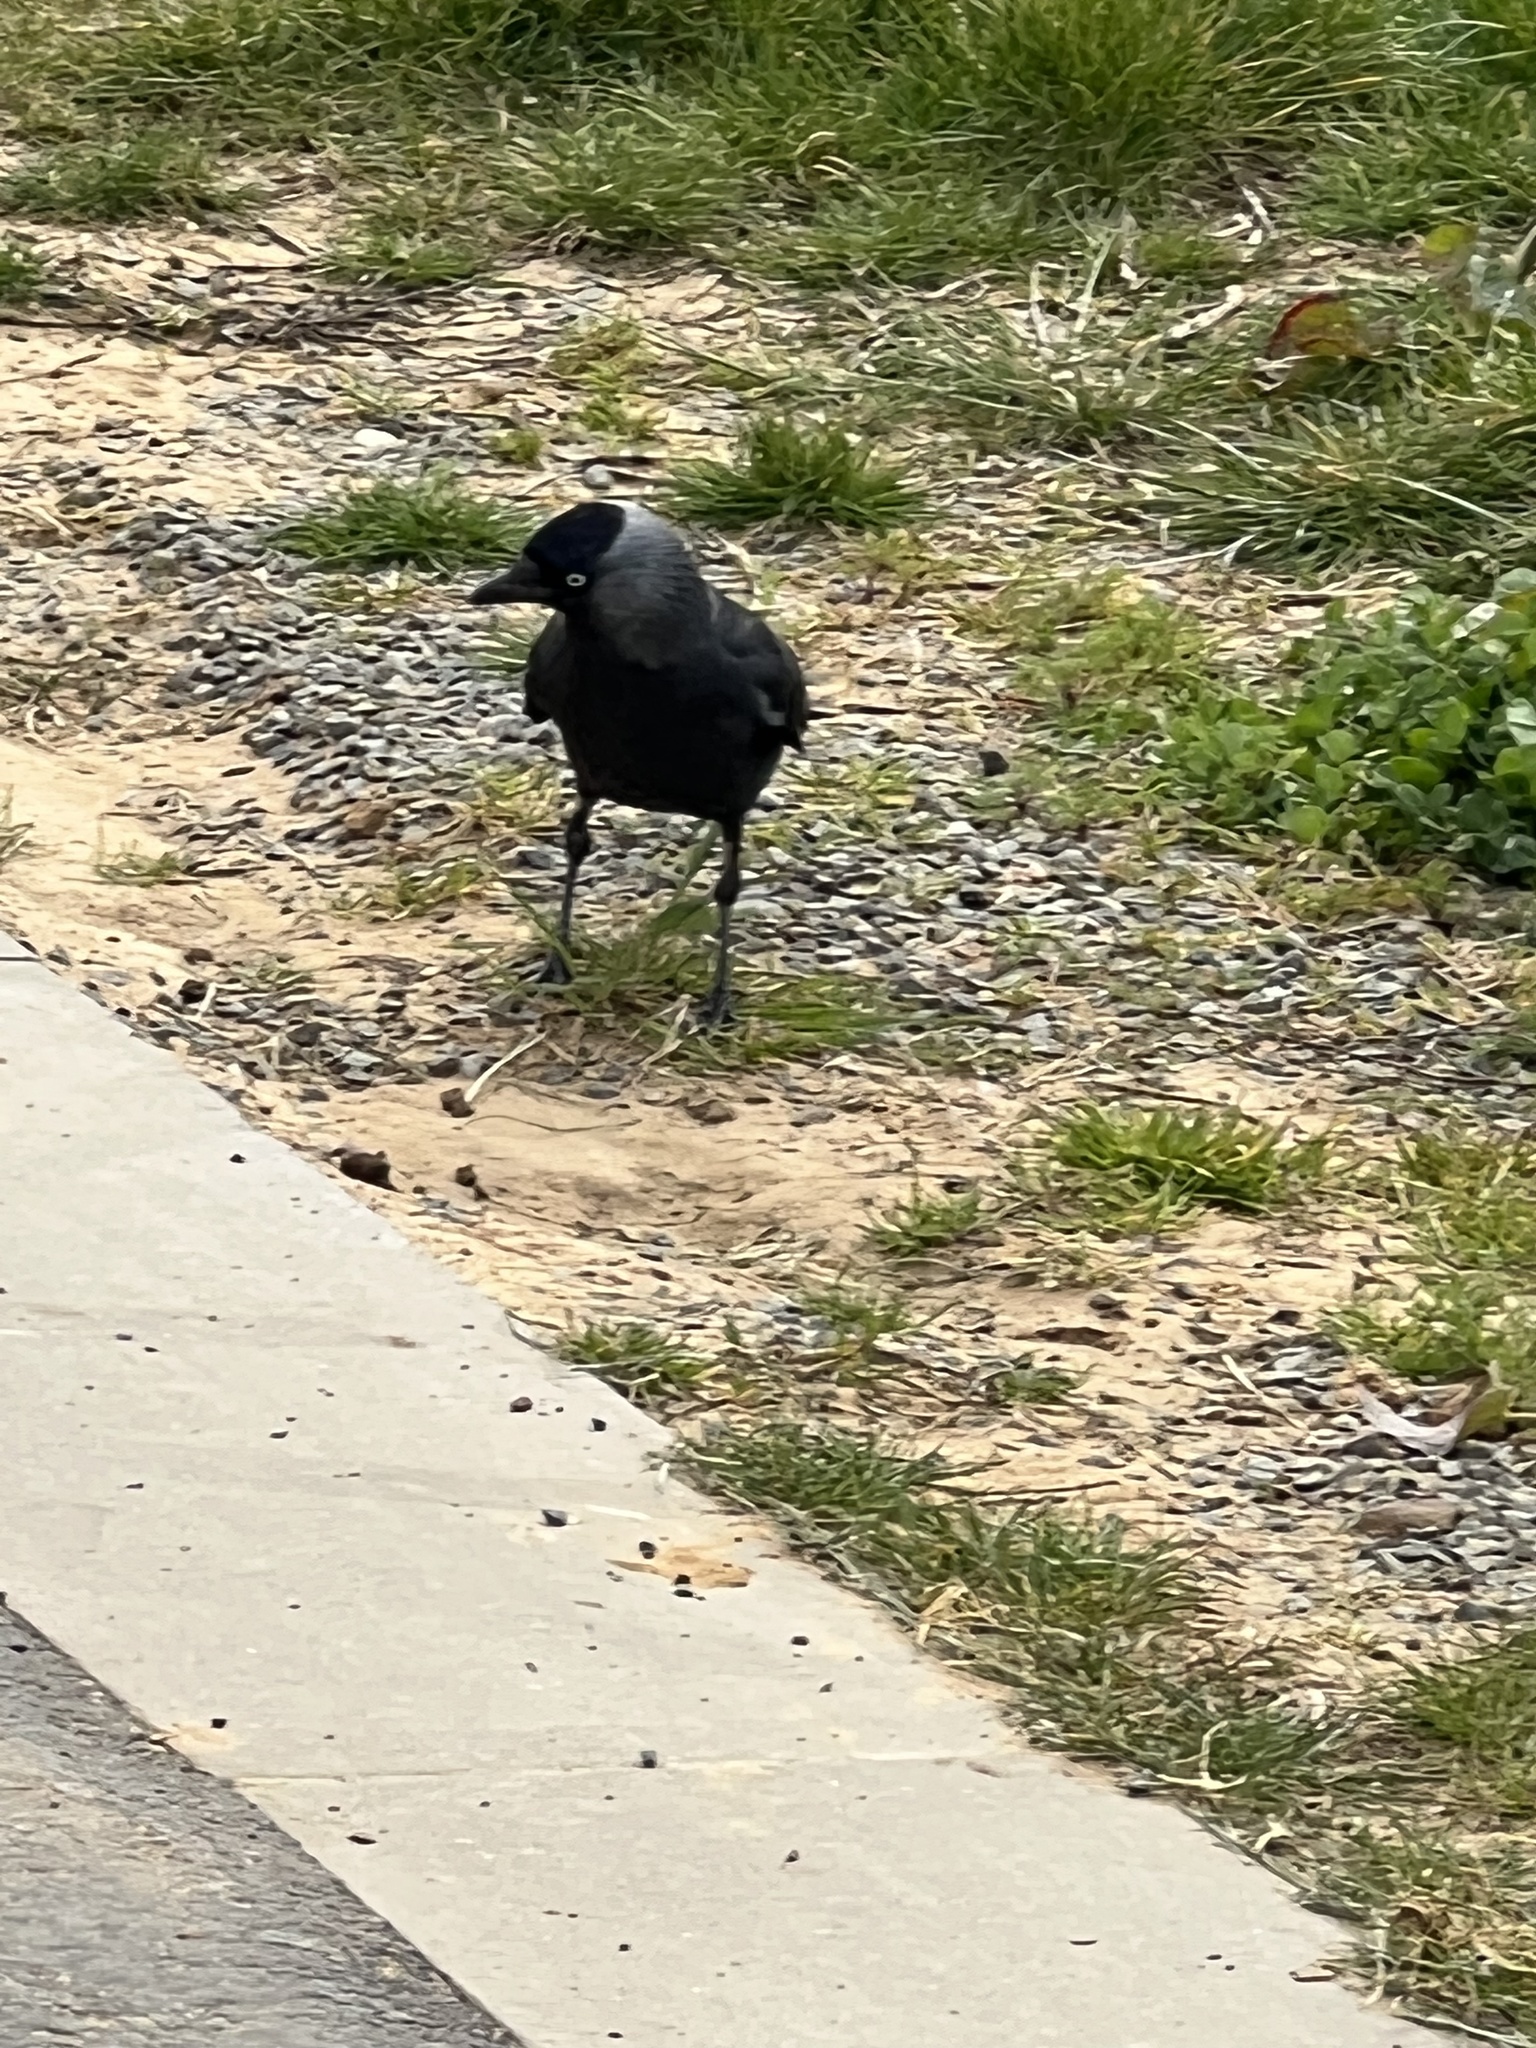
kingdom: Animalia
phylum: Chordata
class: Aves
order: Passeriformes
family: Corvidae
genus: Coloeus
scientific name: Coloeus monedula
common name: Western jackdaw
